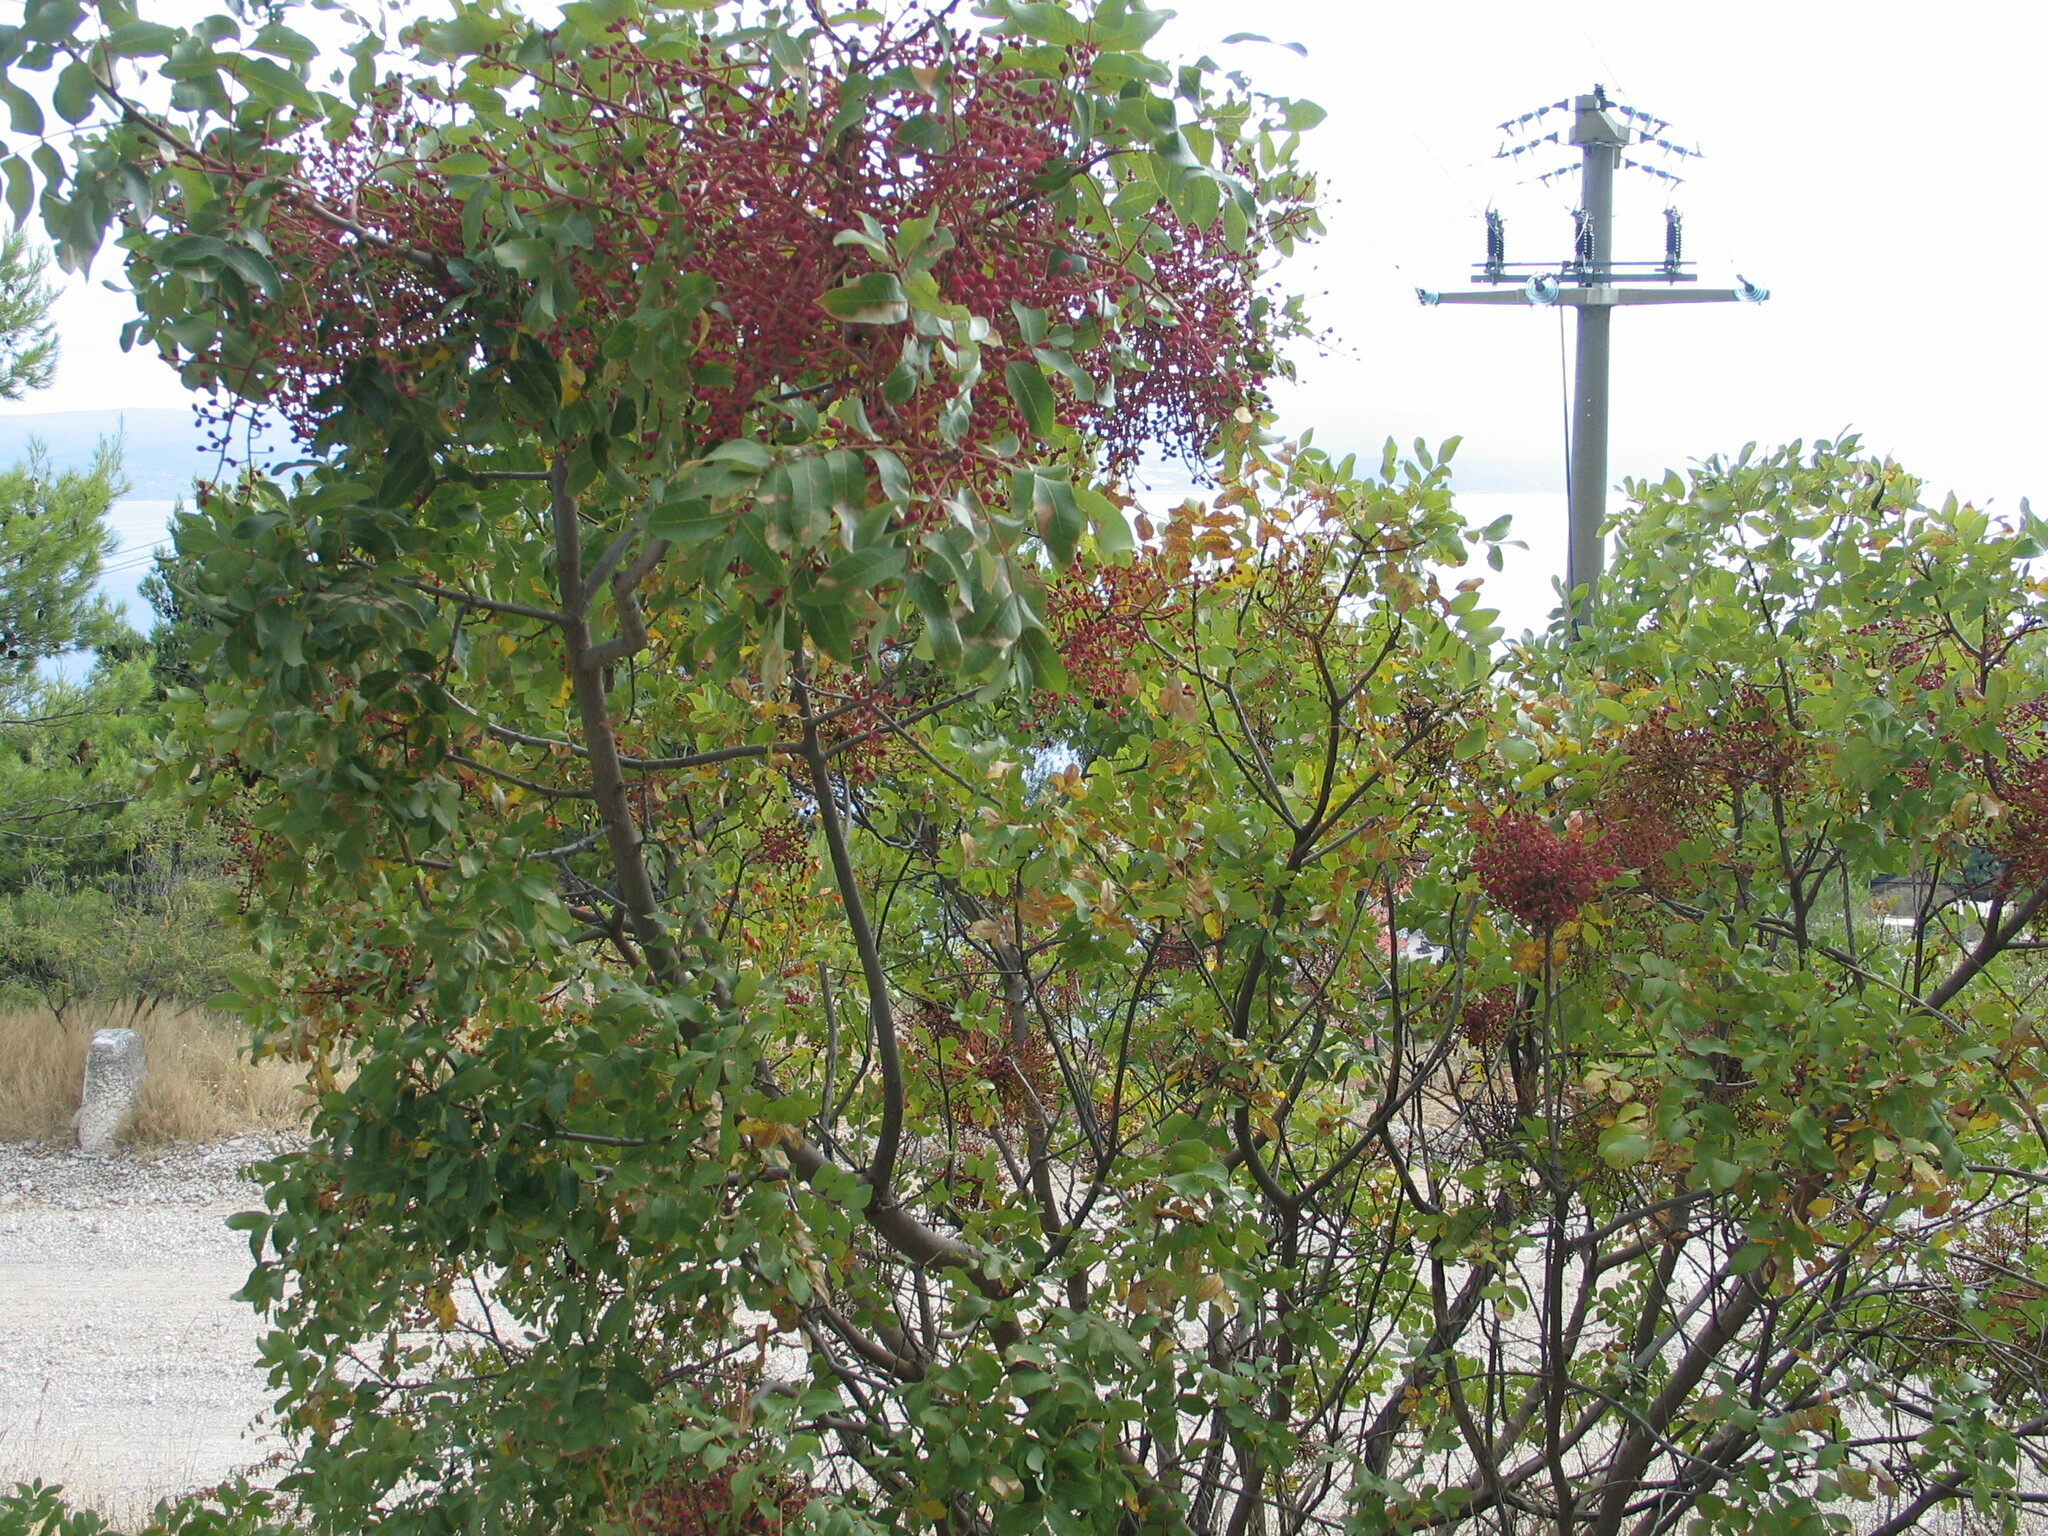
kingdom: Plantae
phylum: Tracheophyta
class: Magnoliopsida
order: Sapindales
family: Anacardiaceae
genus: Pistacia
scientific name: Pistacia terebinthus
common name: Terebinth
